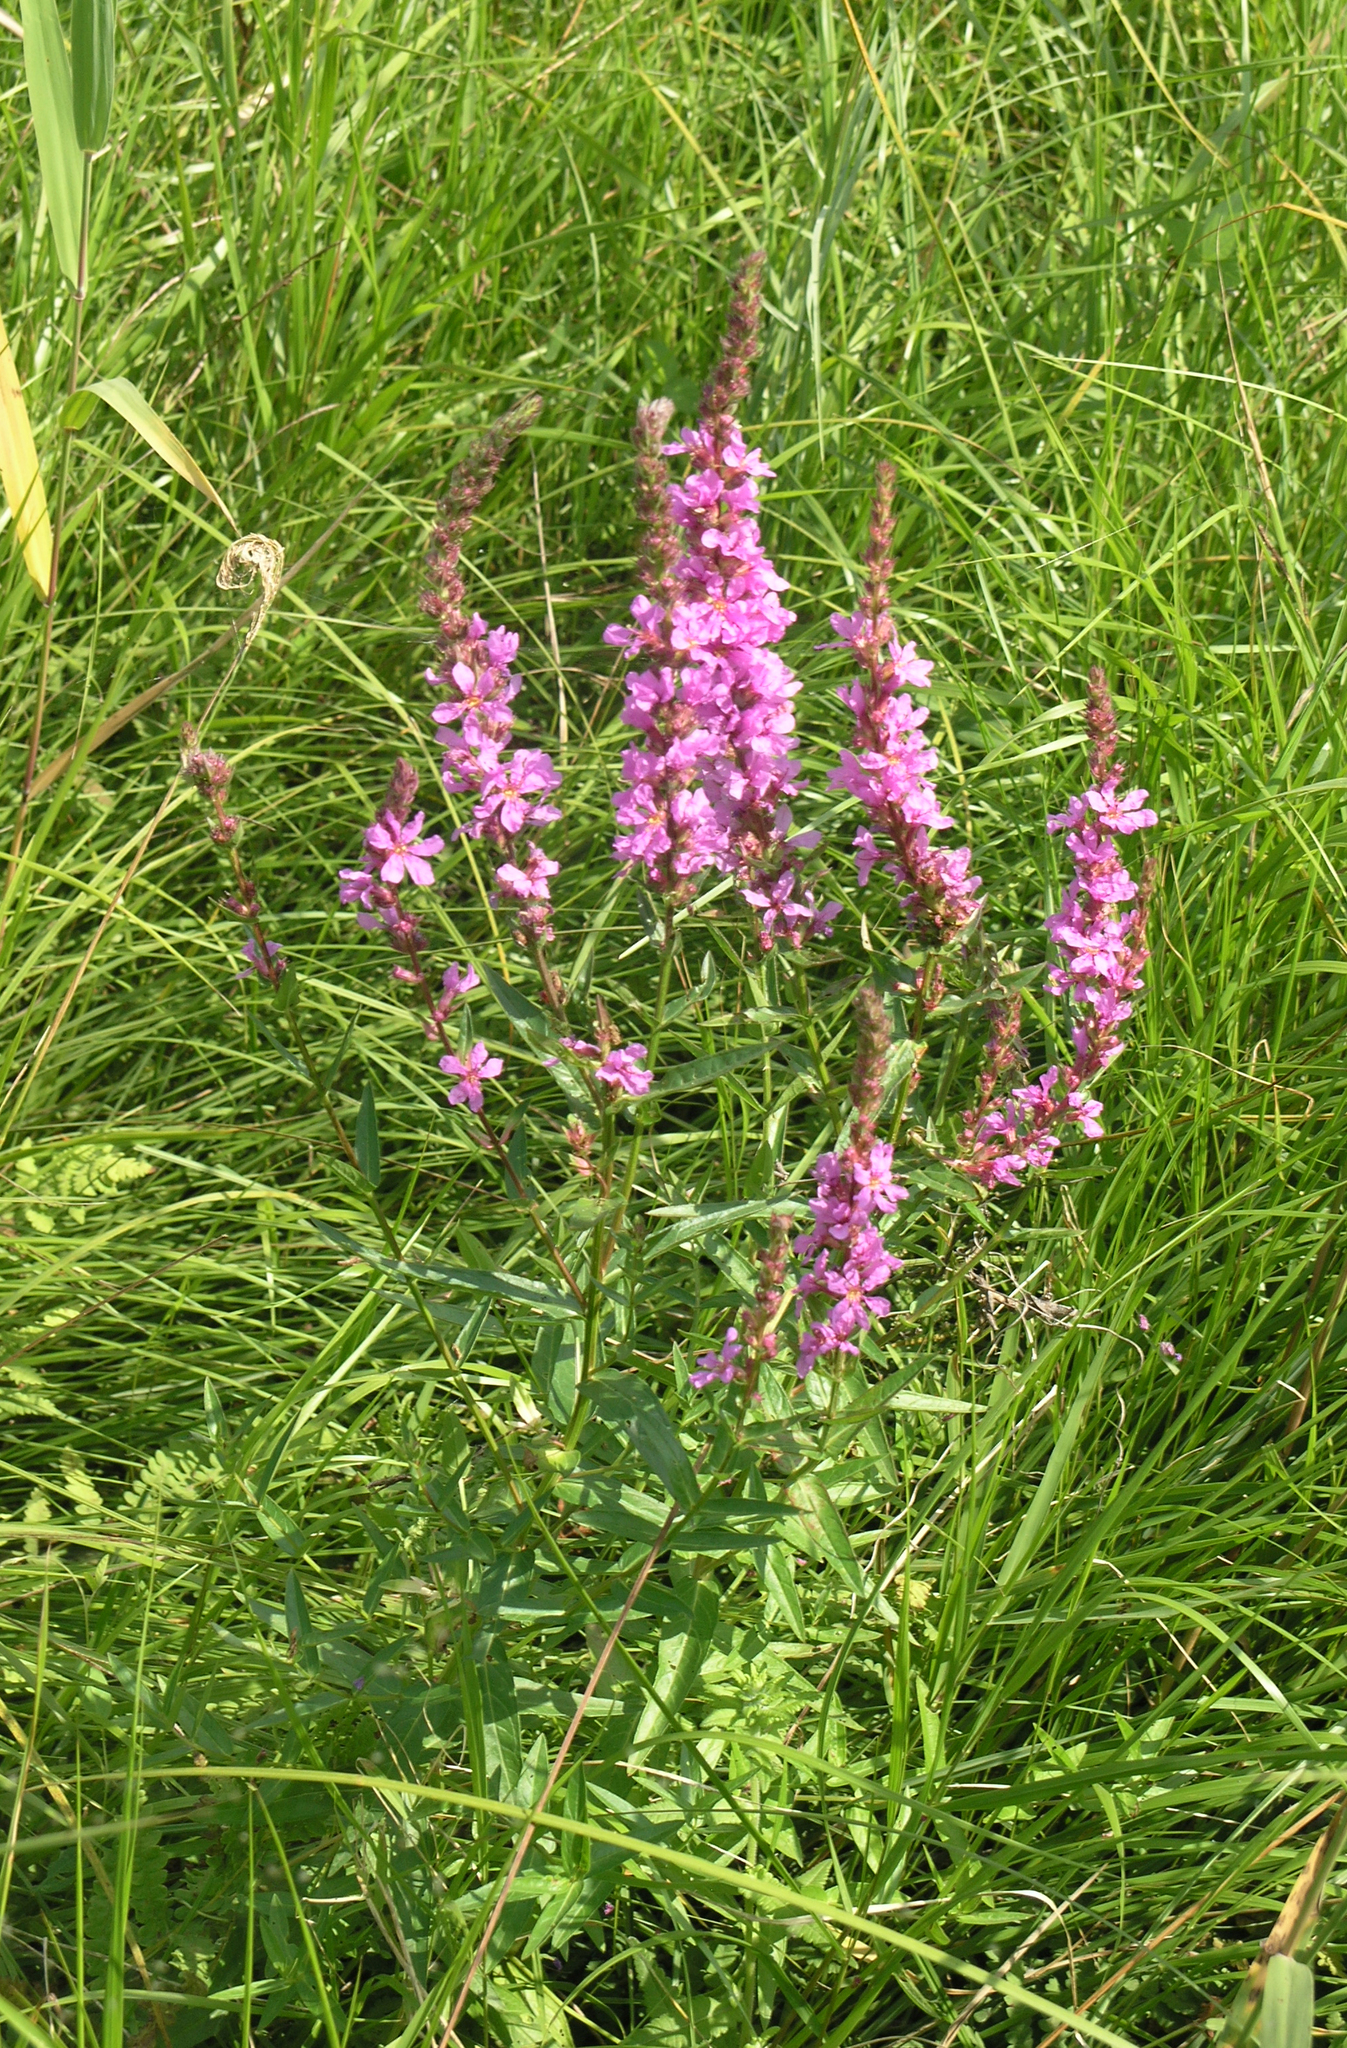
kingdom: Plantae
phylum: Tracheophyta
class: Magnoliopsida
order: Myrtales
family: Lythraceae
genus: Lythrum
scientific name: Lythrum salicaria
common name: Purple loosestrife
